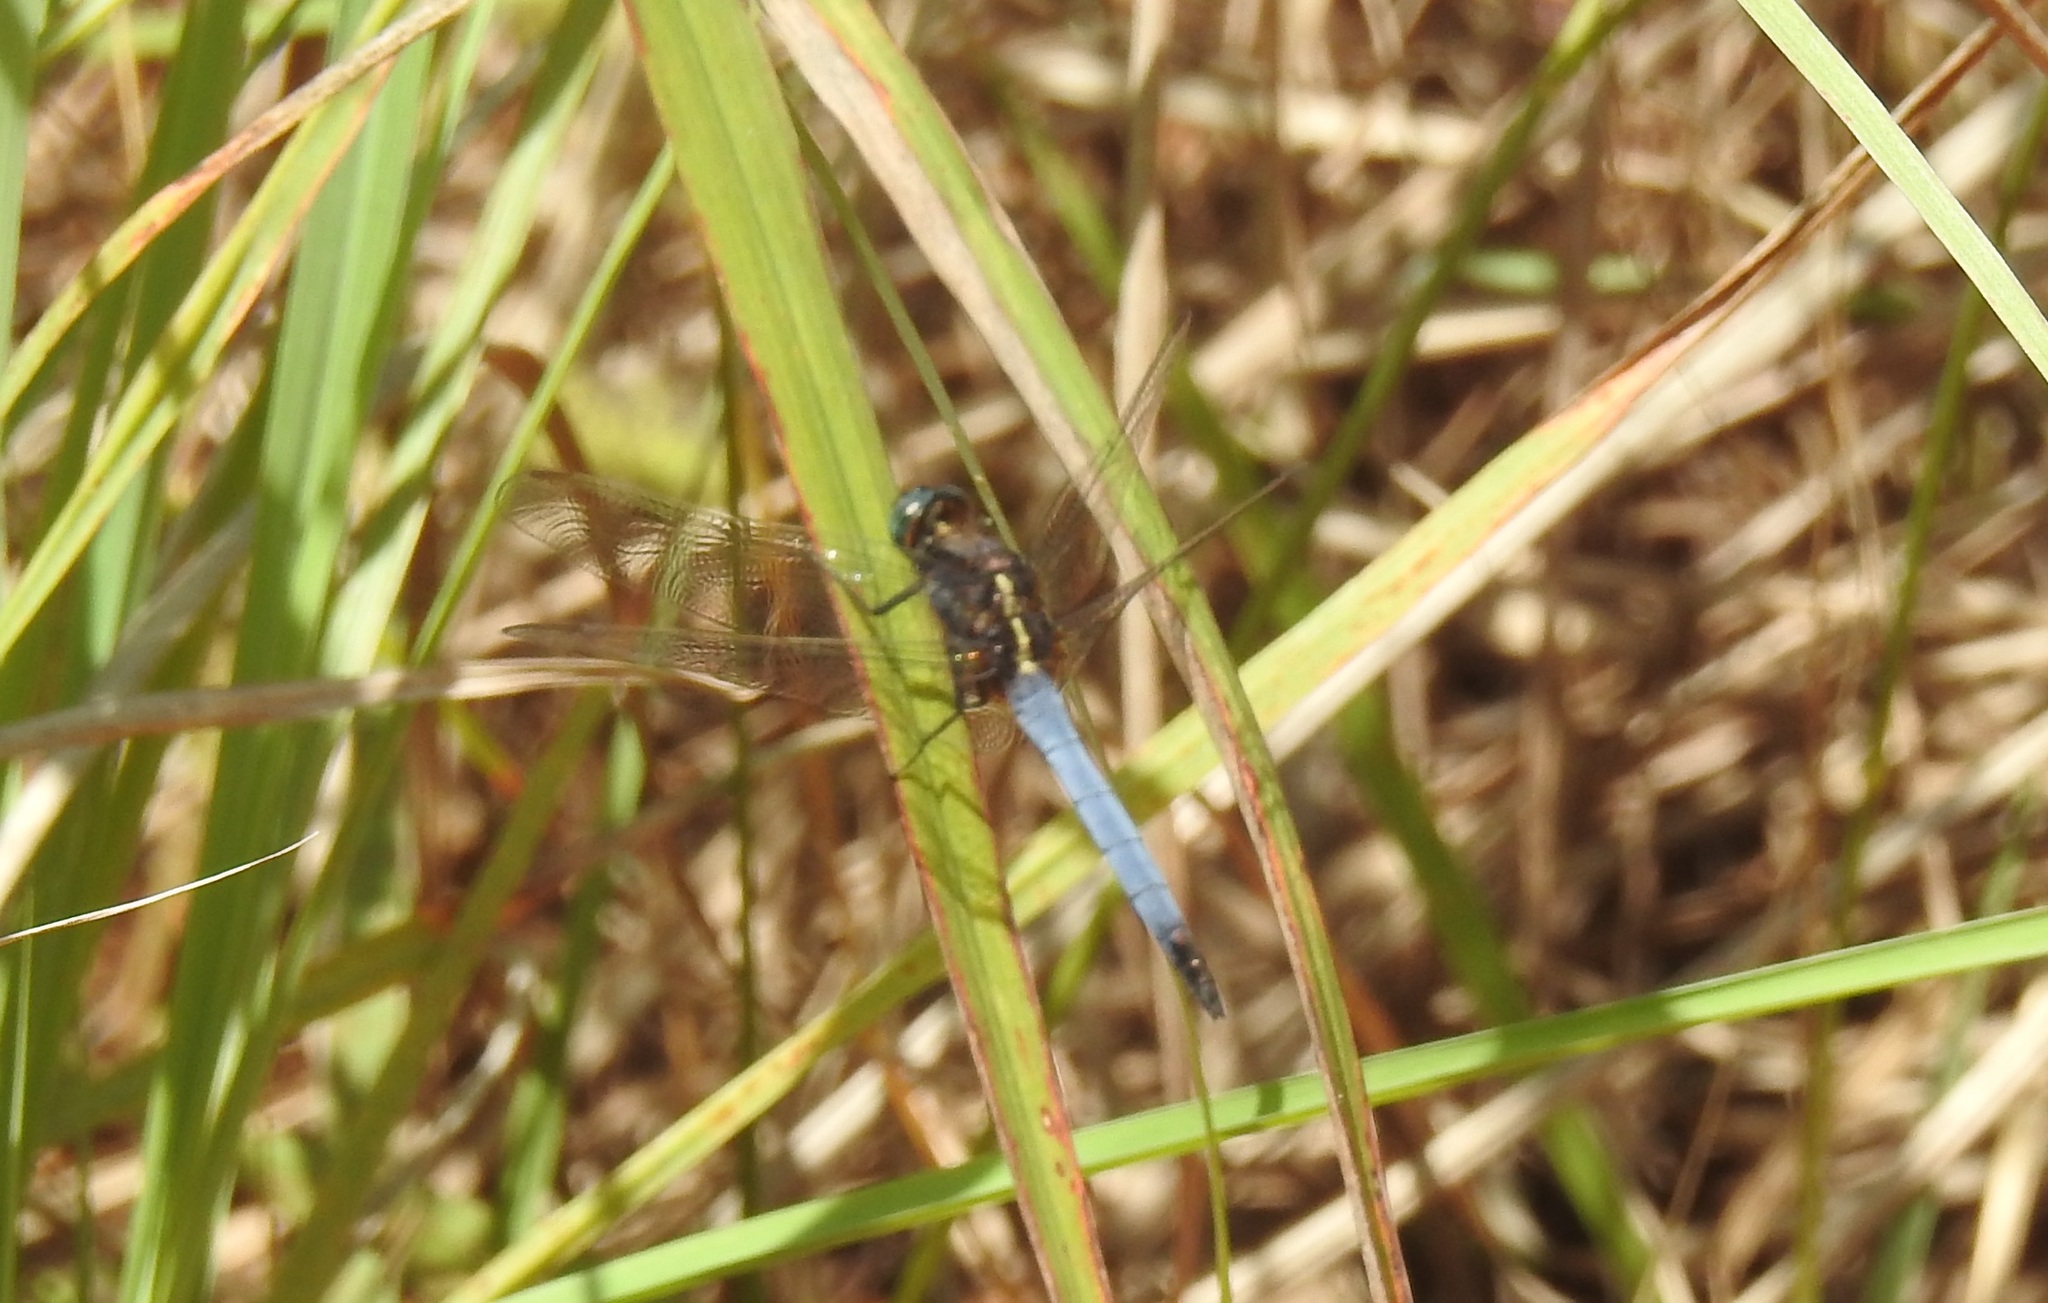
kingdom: Animalia
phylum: Arthropoda
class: Insecta
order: Odonata
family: Libellulidae
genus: Orthetrum
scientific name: Orthetrum glaucum
